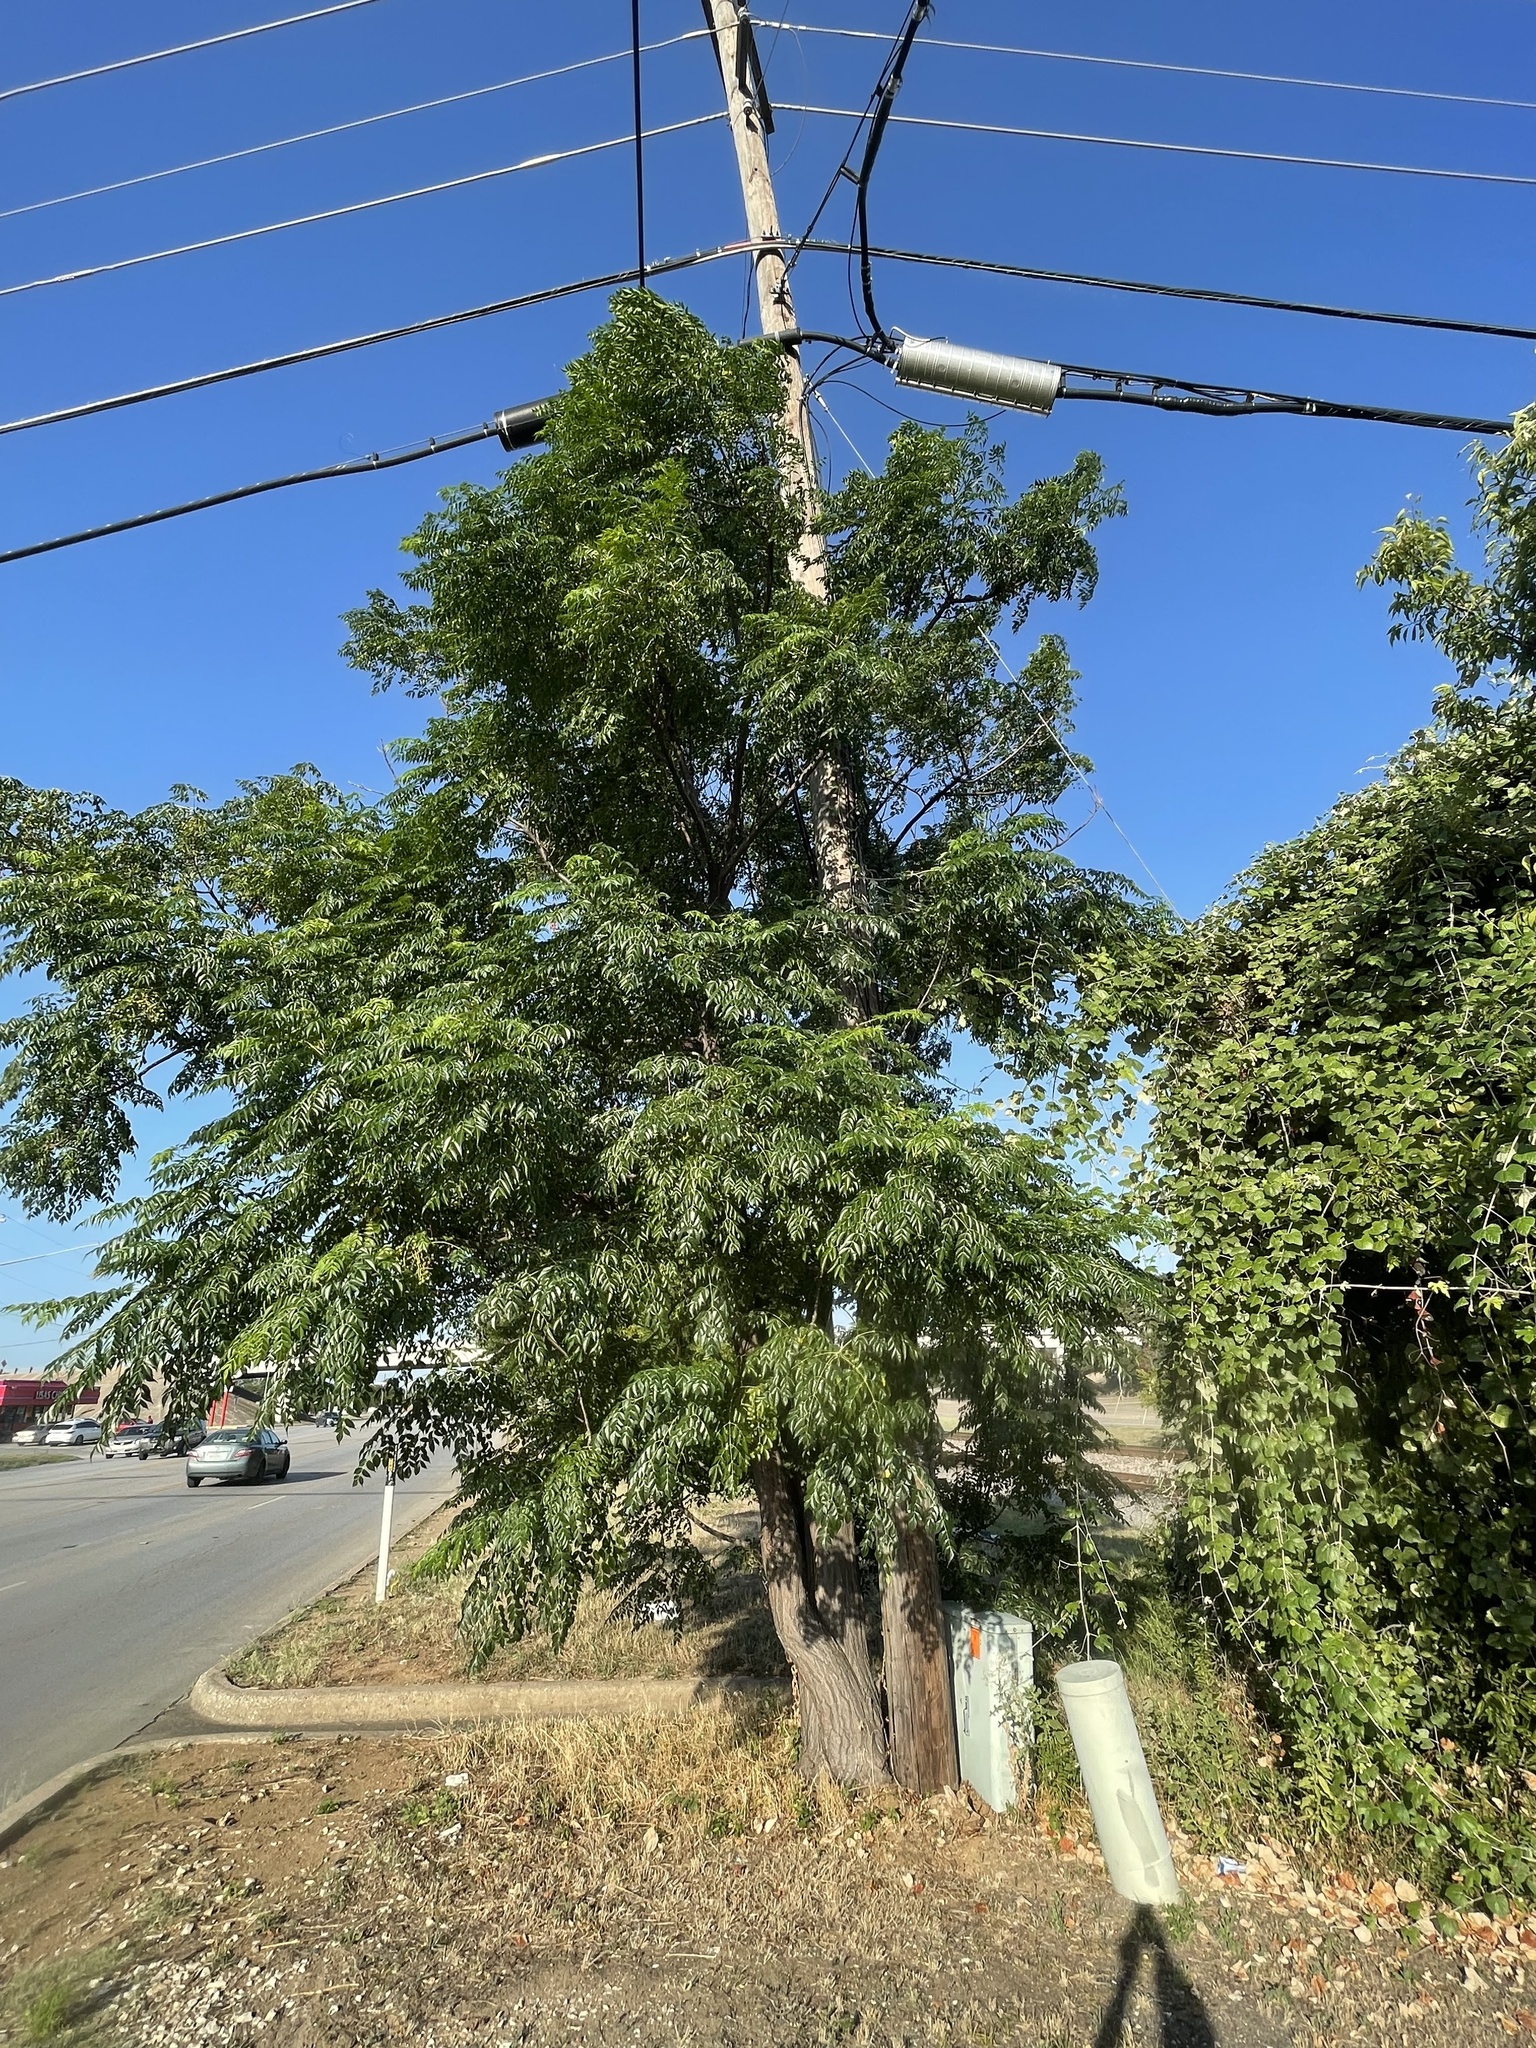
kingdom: Plantae
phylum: Tracheophyta
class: Magnoliopsida
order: Sapindales
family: Meliaceae
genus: Melia
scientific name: Melia azedarach
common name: Chinaberrytree
